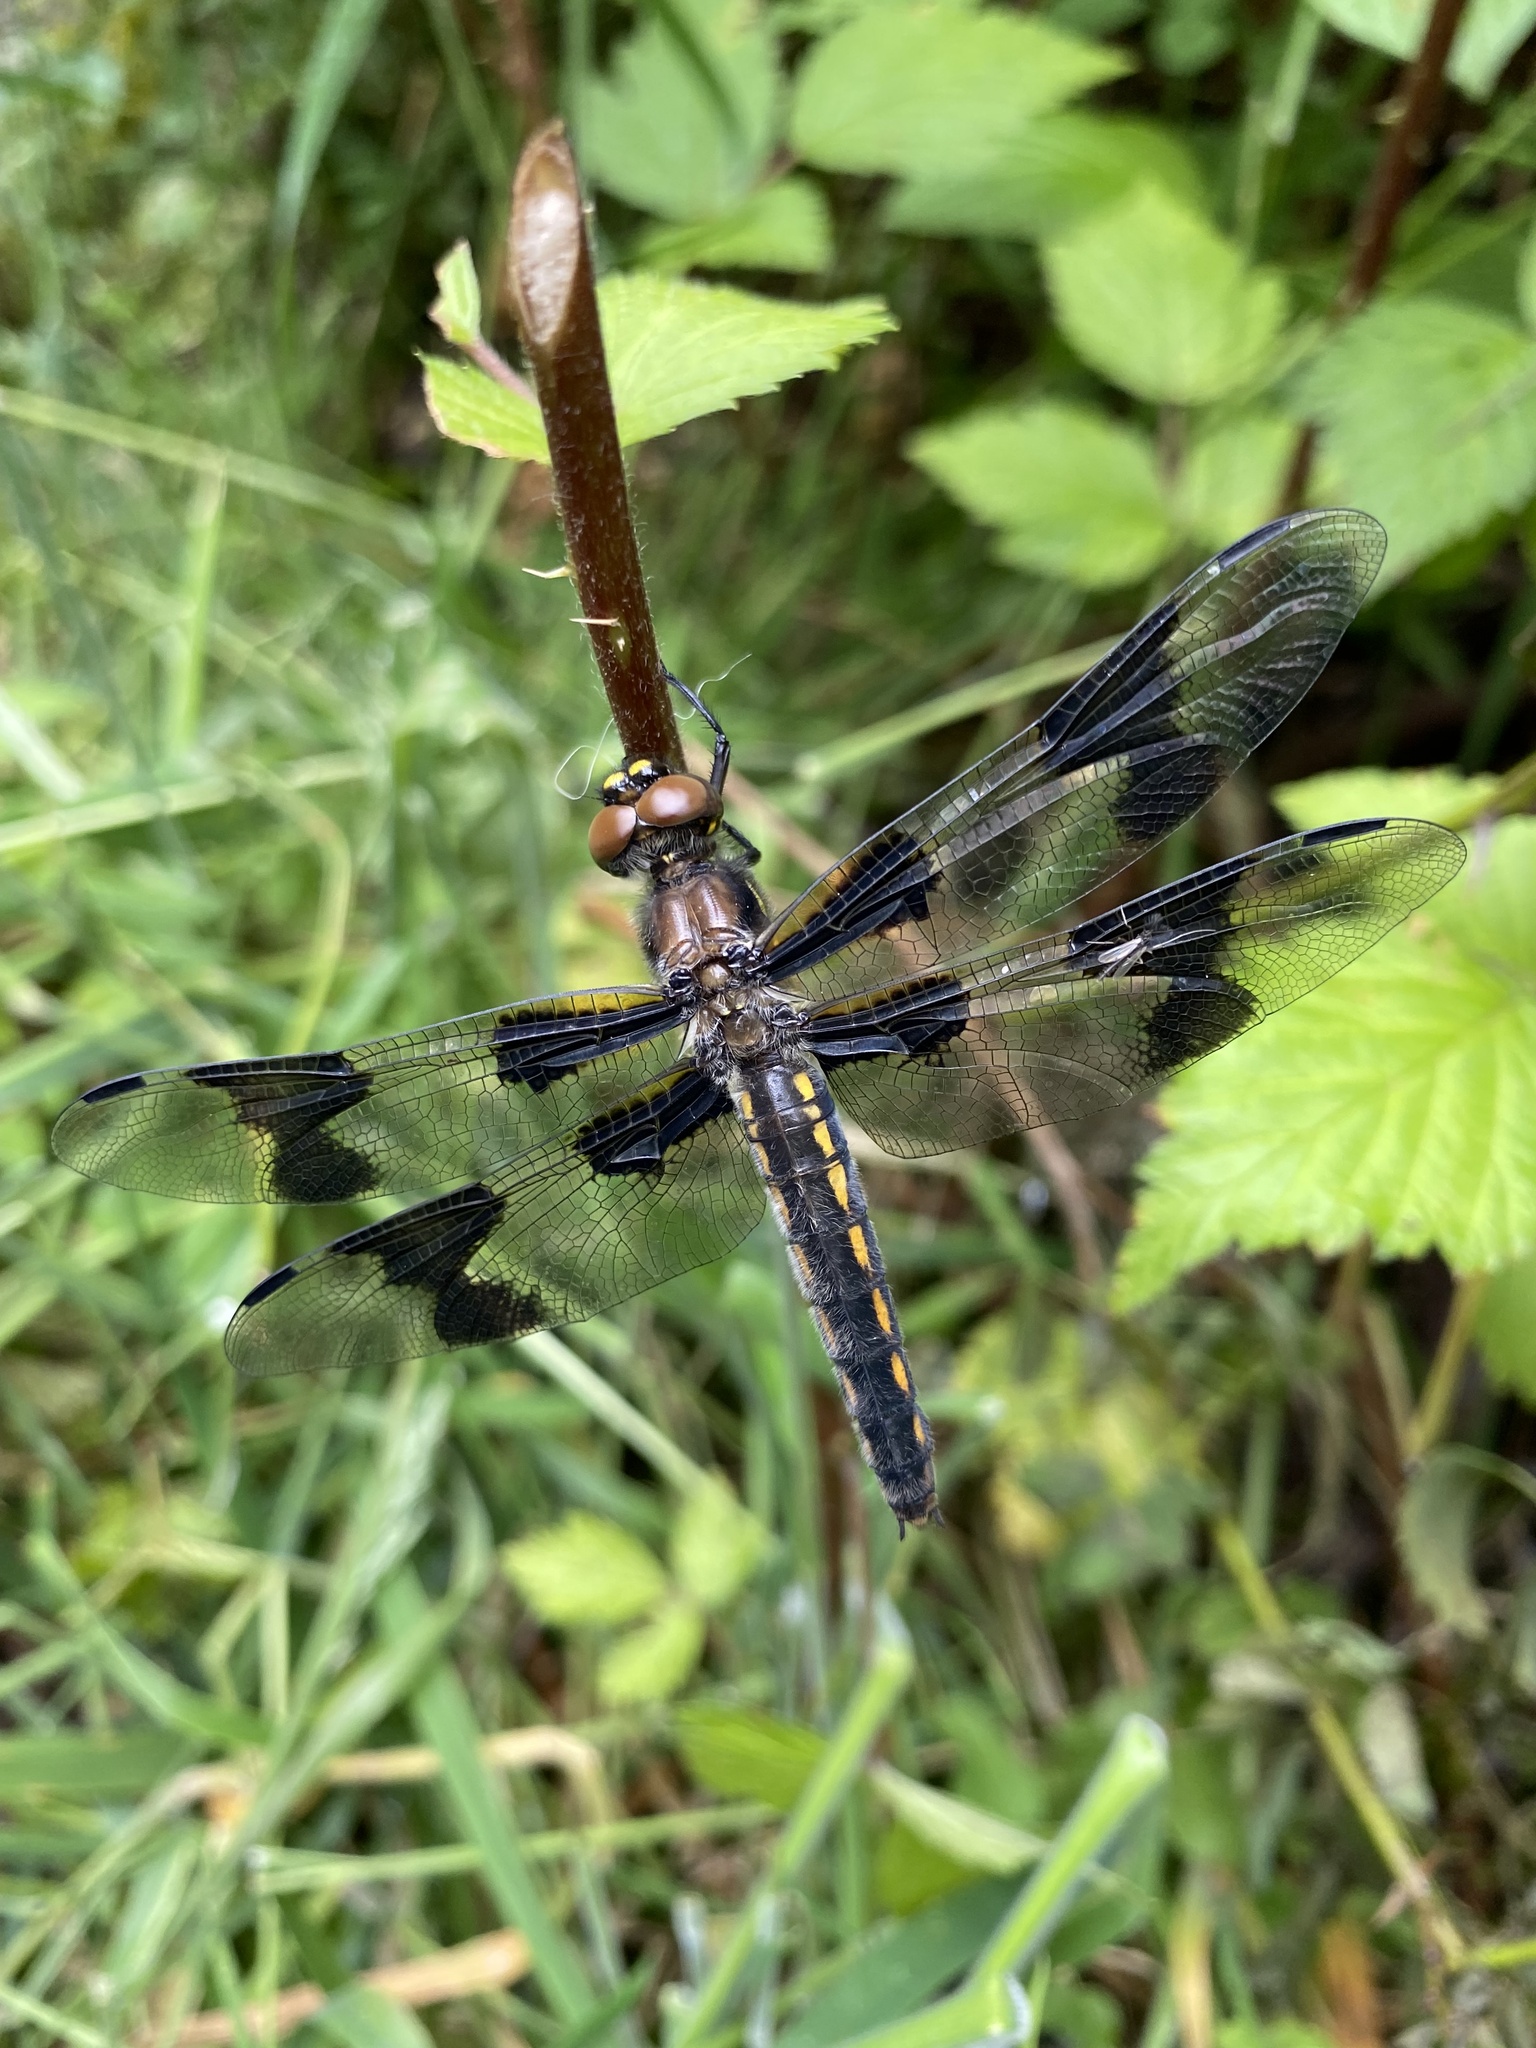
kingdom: Animalia
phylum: Arthropoda
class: Insecta
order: Odonata
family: Libellulidae
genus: Libellula
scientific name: Libellula forensis
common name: Eight-spotted skimmer
